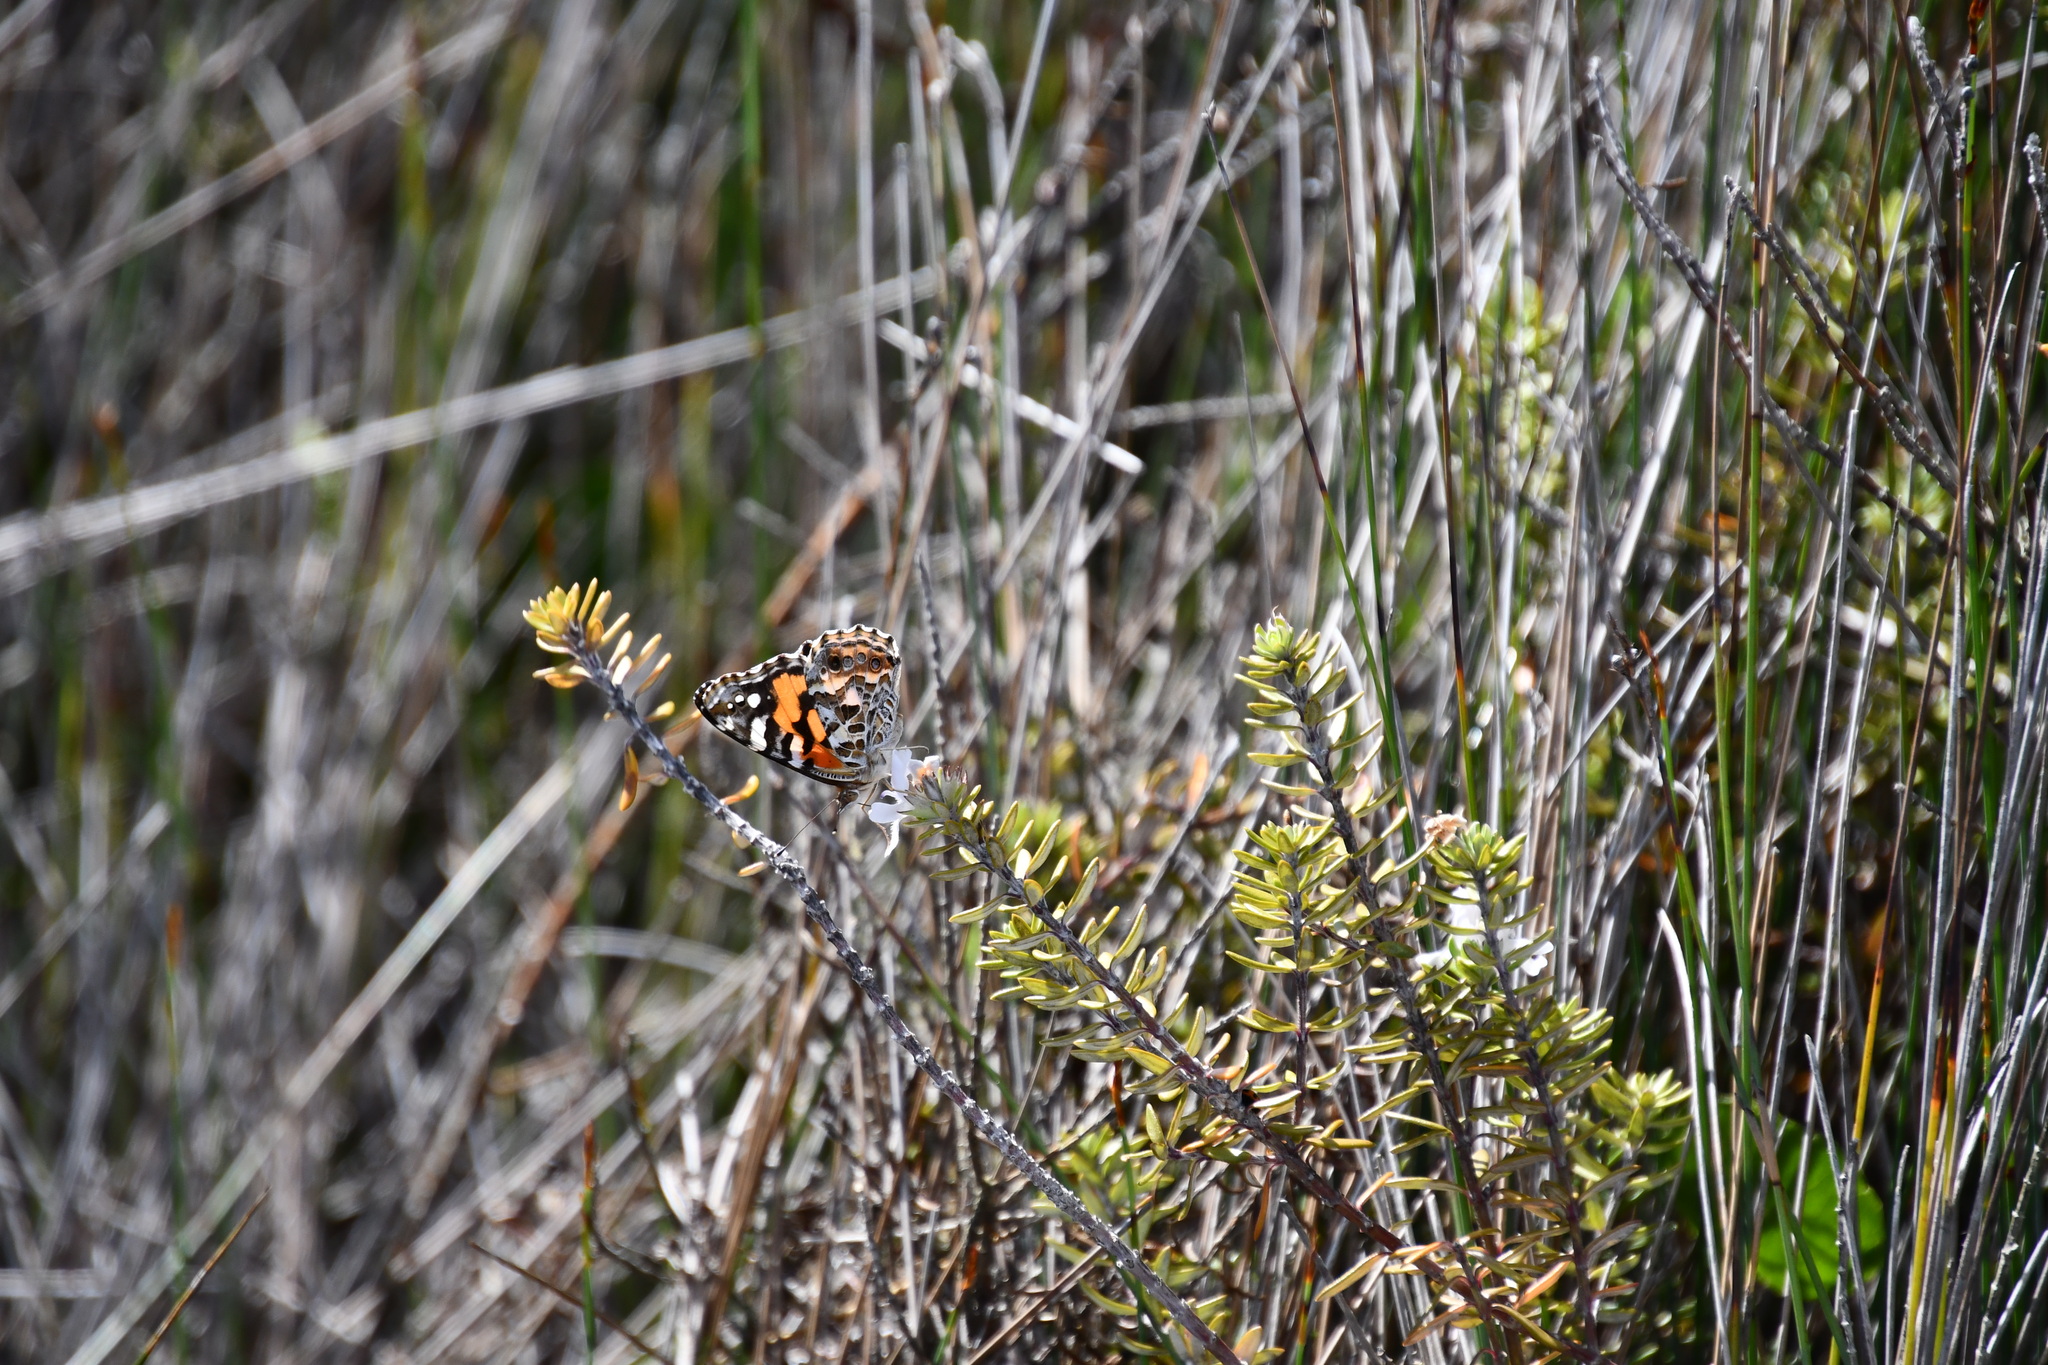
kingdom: Animalia
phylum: Arthropoda
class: Insecta
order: Lepidoptera
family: Nymphalidae
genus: Vanessa
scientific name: Vanessa kershawi
